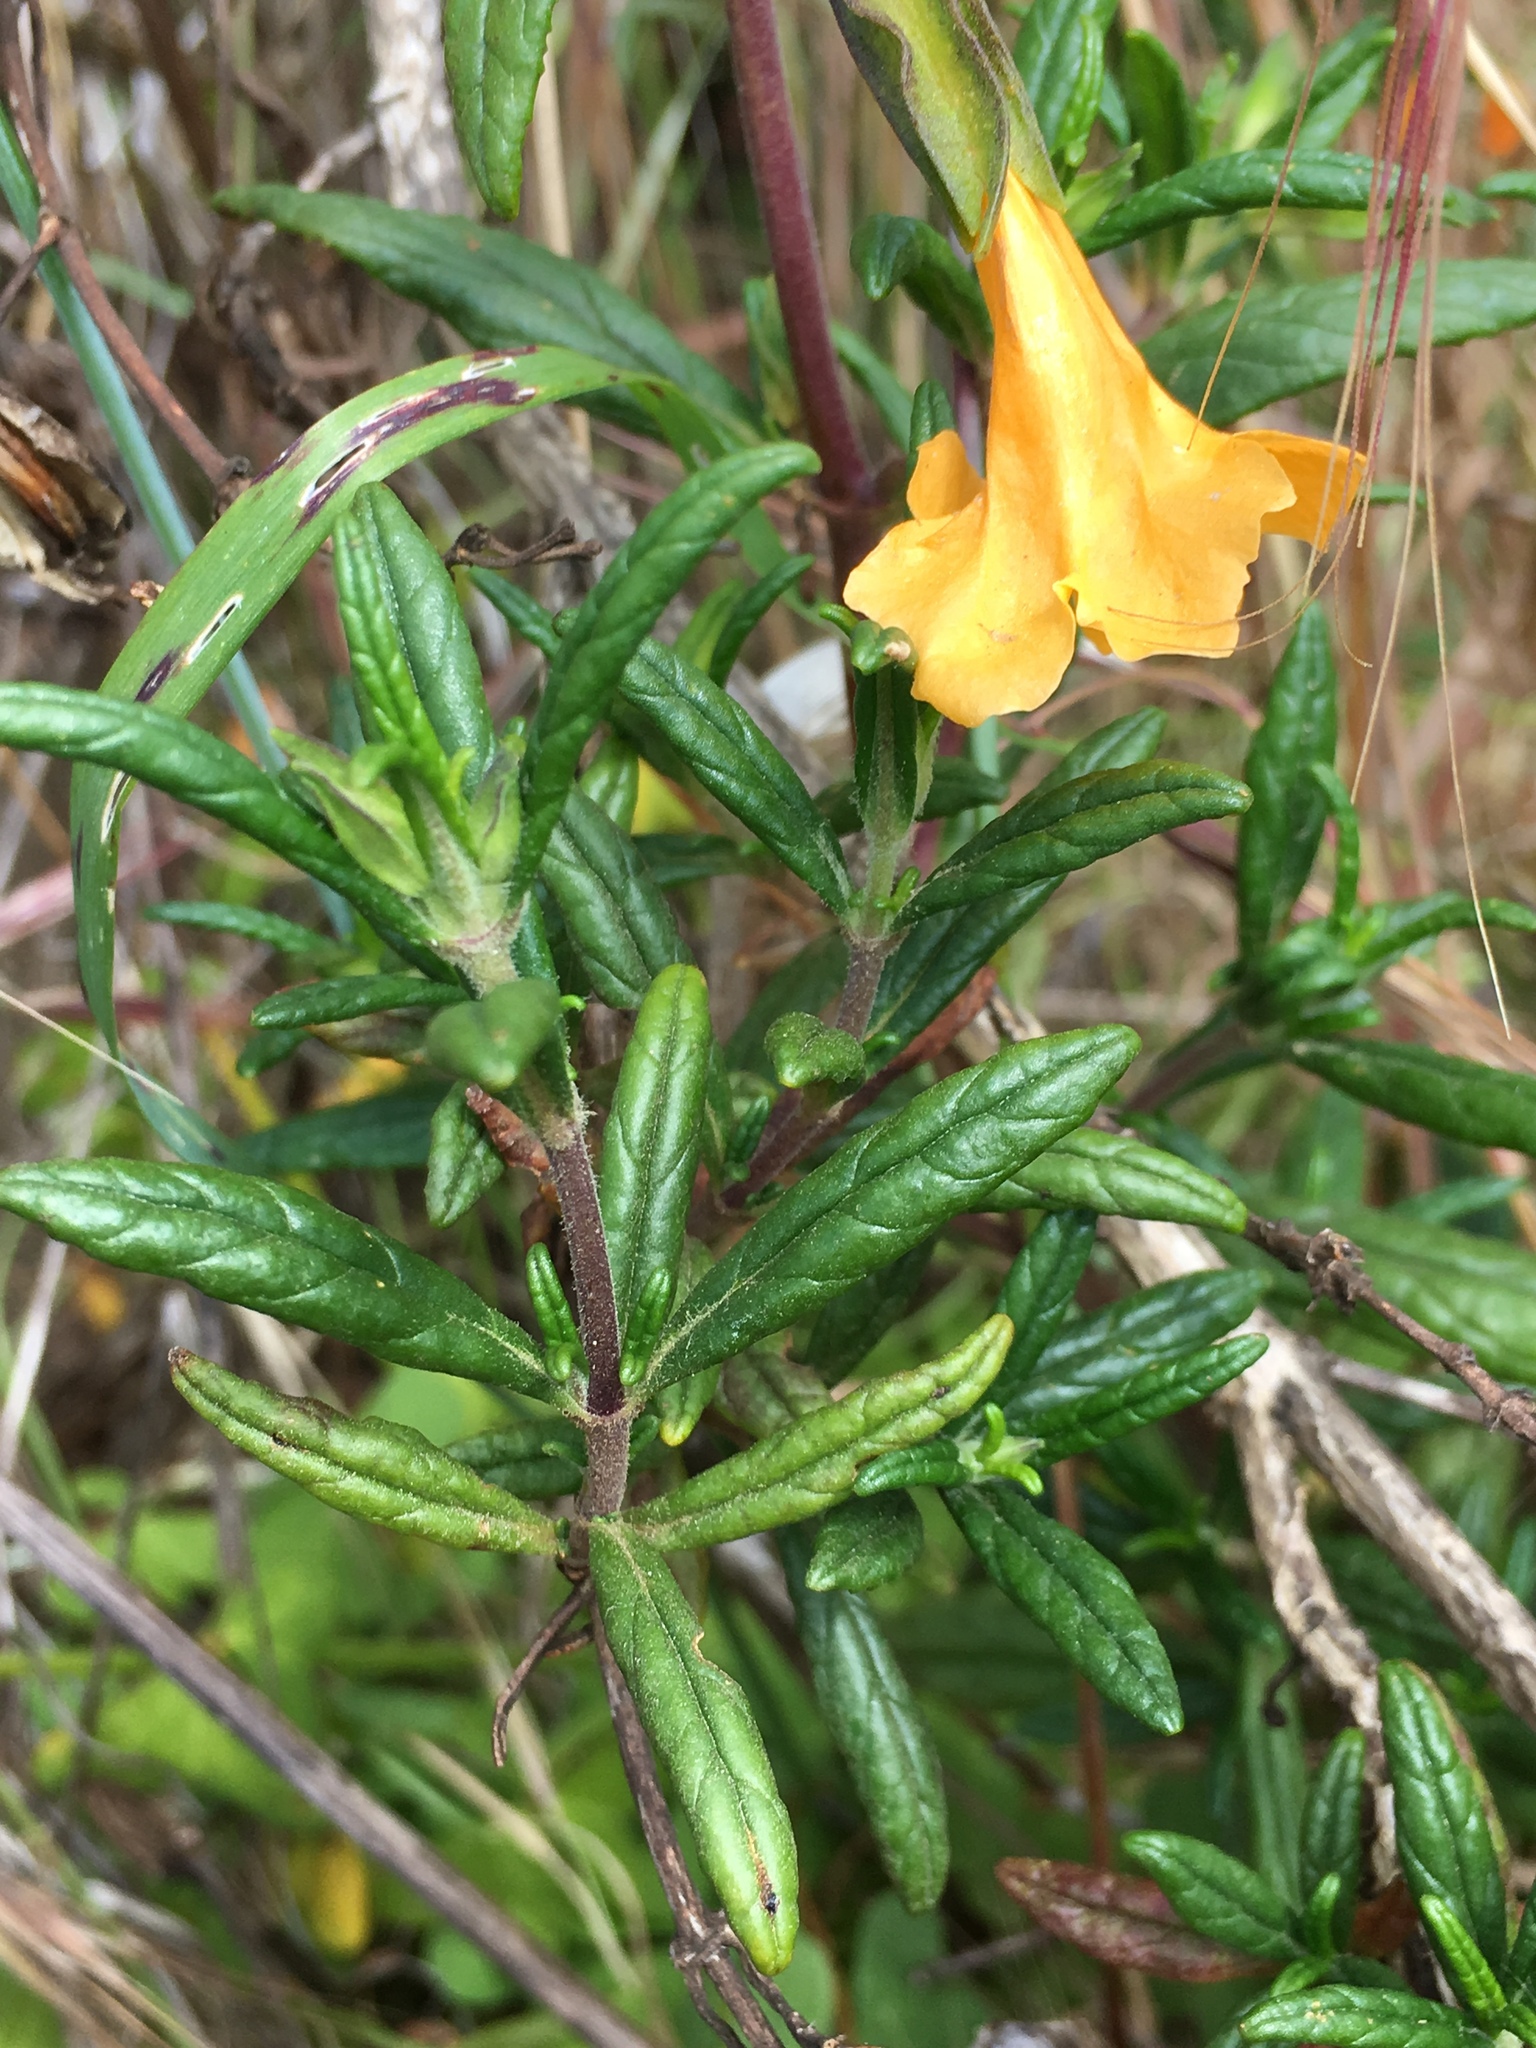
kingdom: Plantae
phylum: Tracheophyta
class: Magnoliopsida
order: Lamiales
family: Phrymaceae
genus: Diplacus
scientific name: Diplacus aurantiacus
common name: Bush monkey-flower
